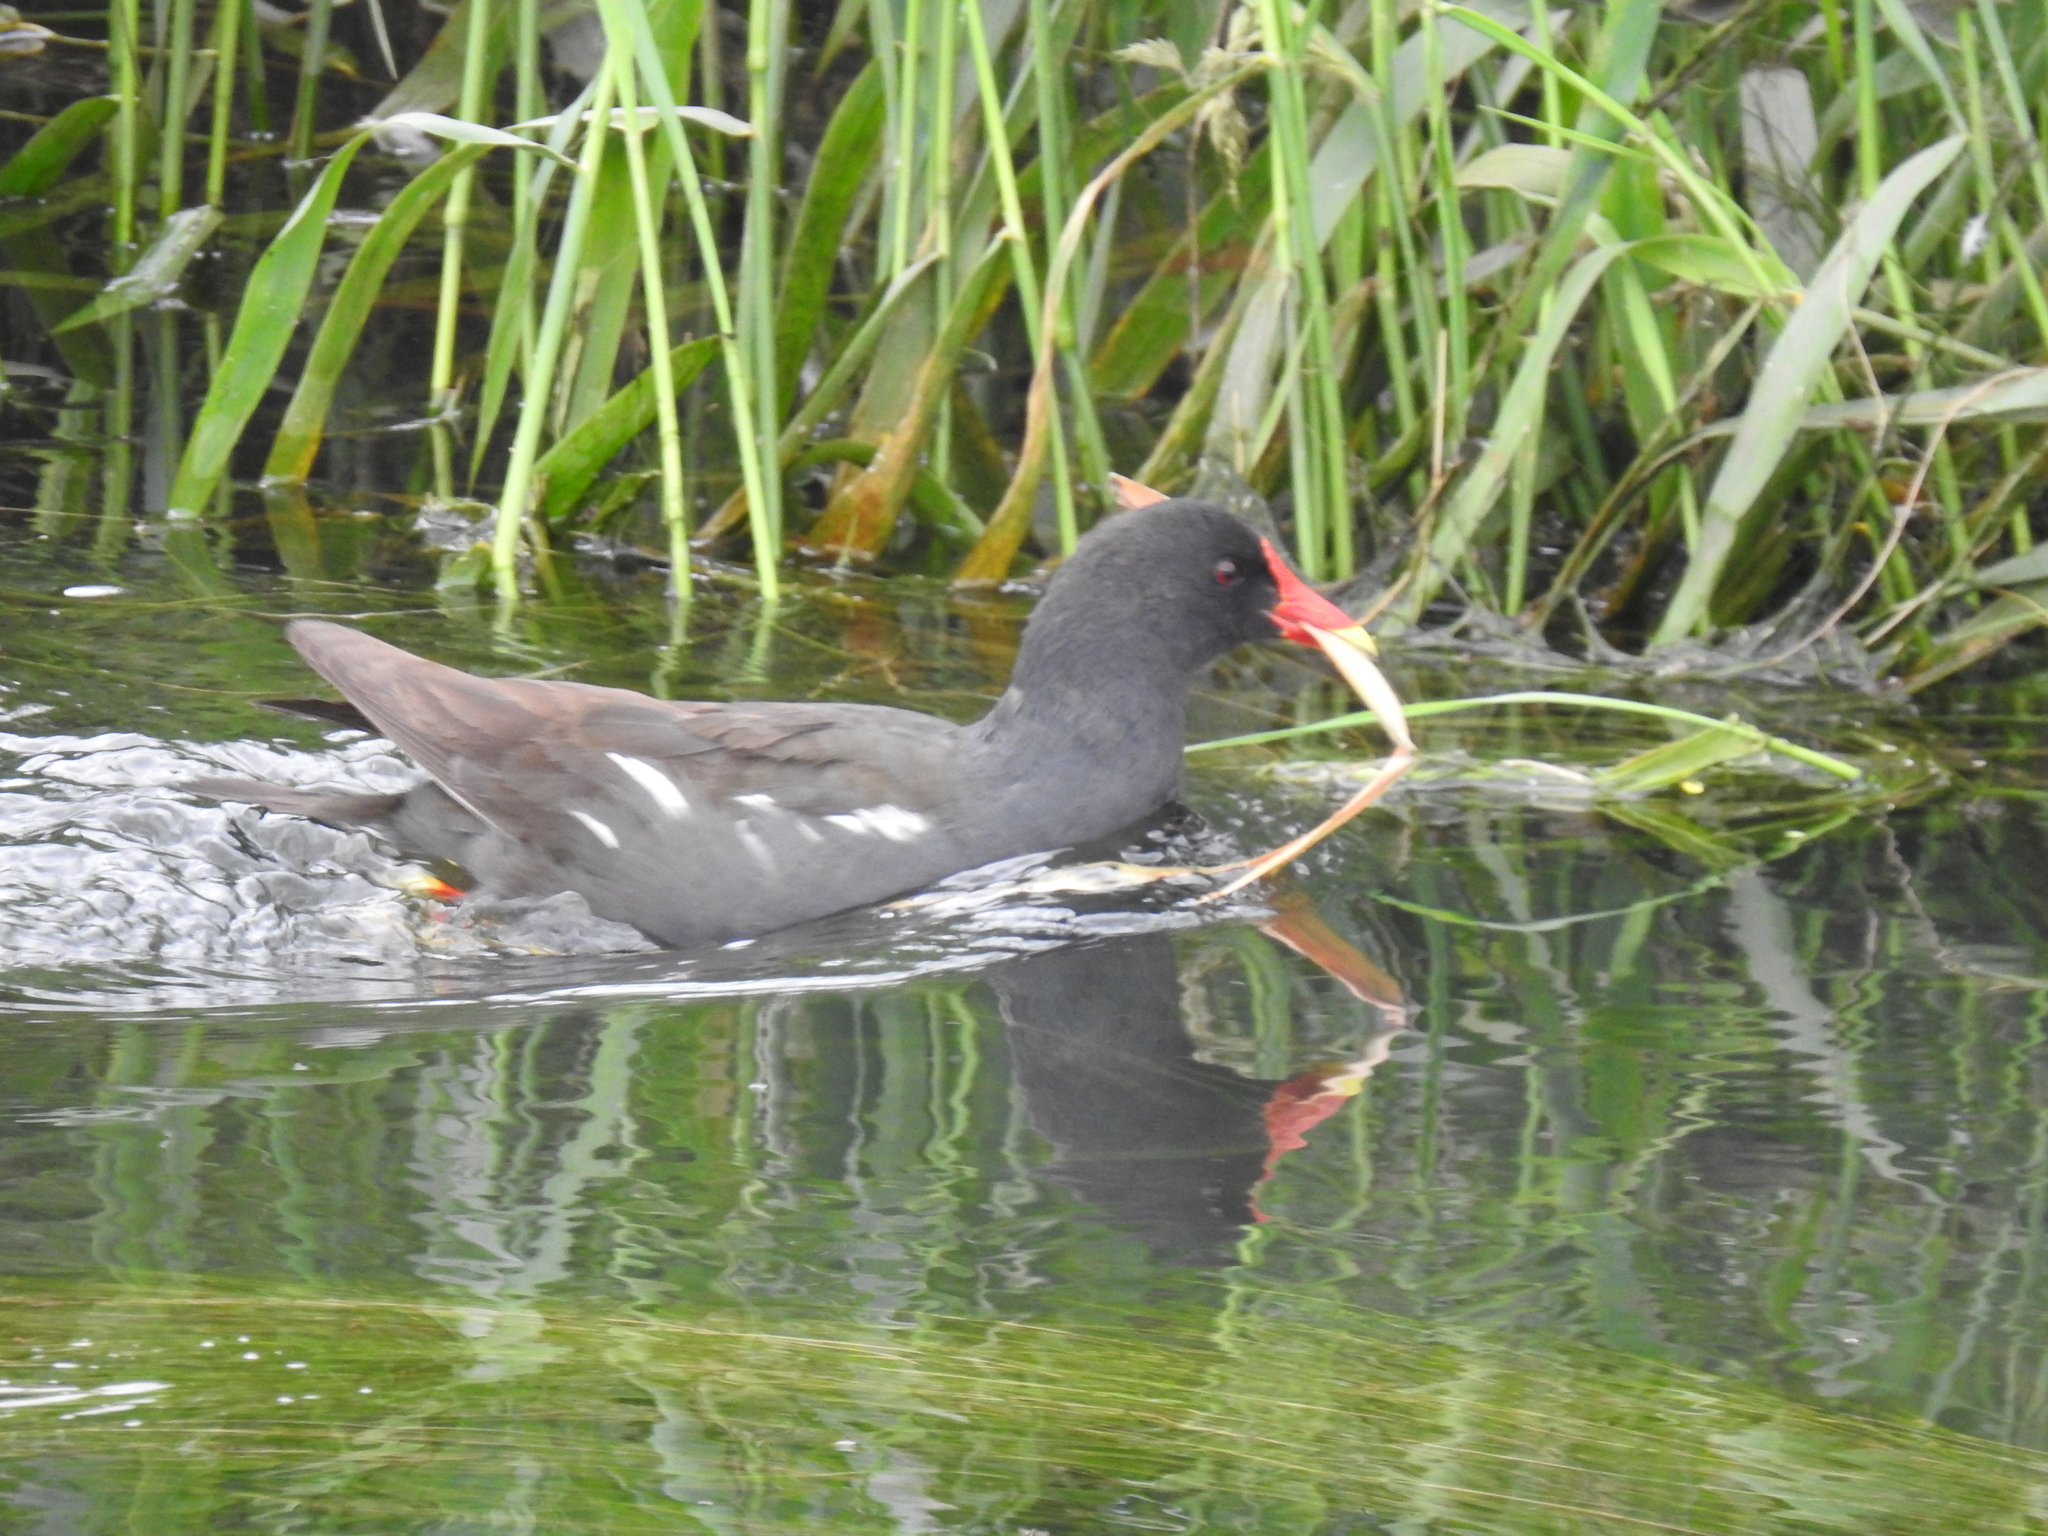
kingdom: Animalia
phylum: Chordata
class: Aves
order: Gruiformes
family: Rallidae
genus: Gallinula
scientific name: Gallinula chloropus
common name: Common moorhen
